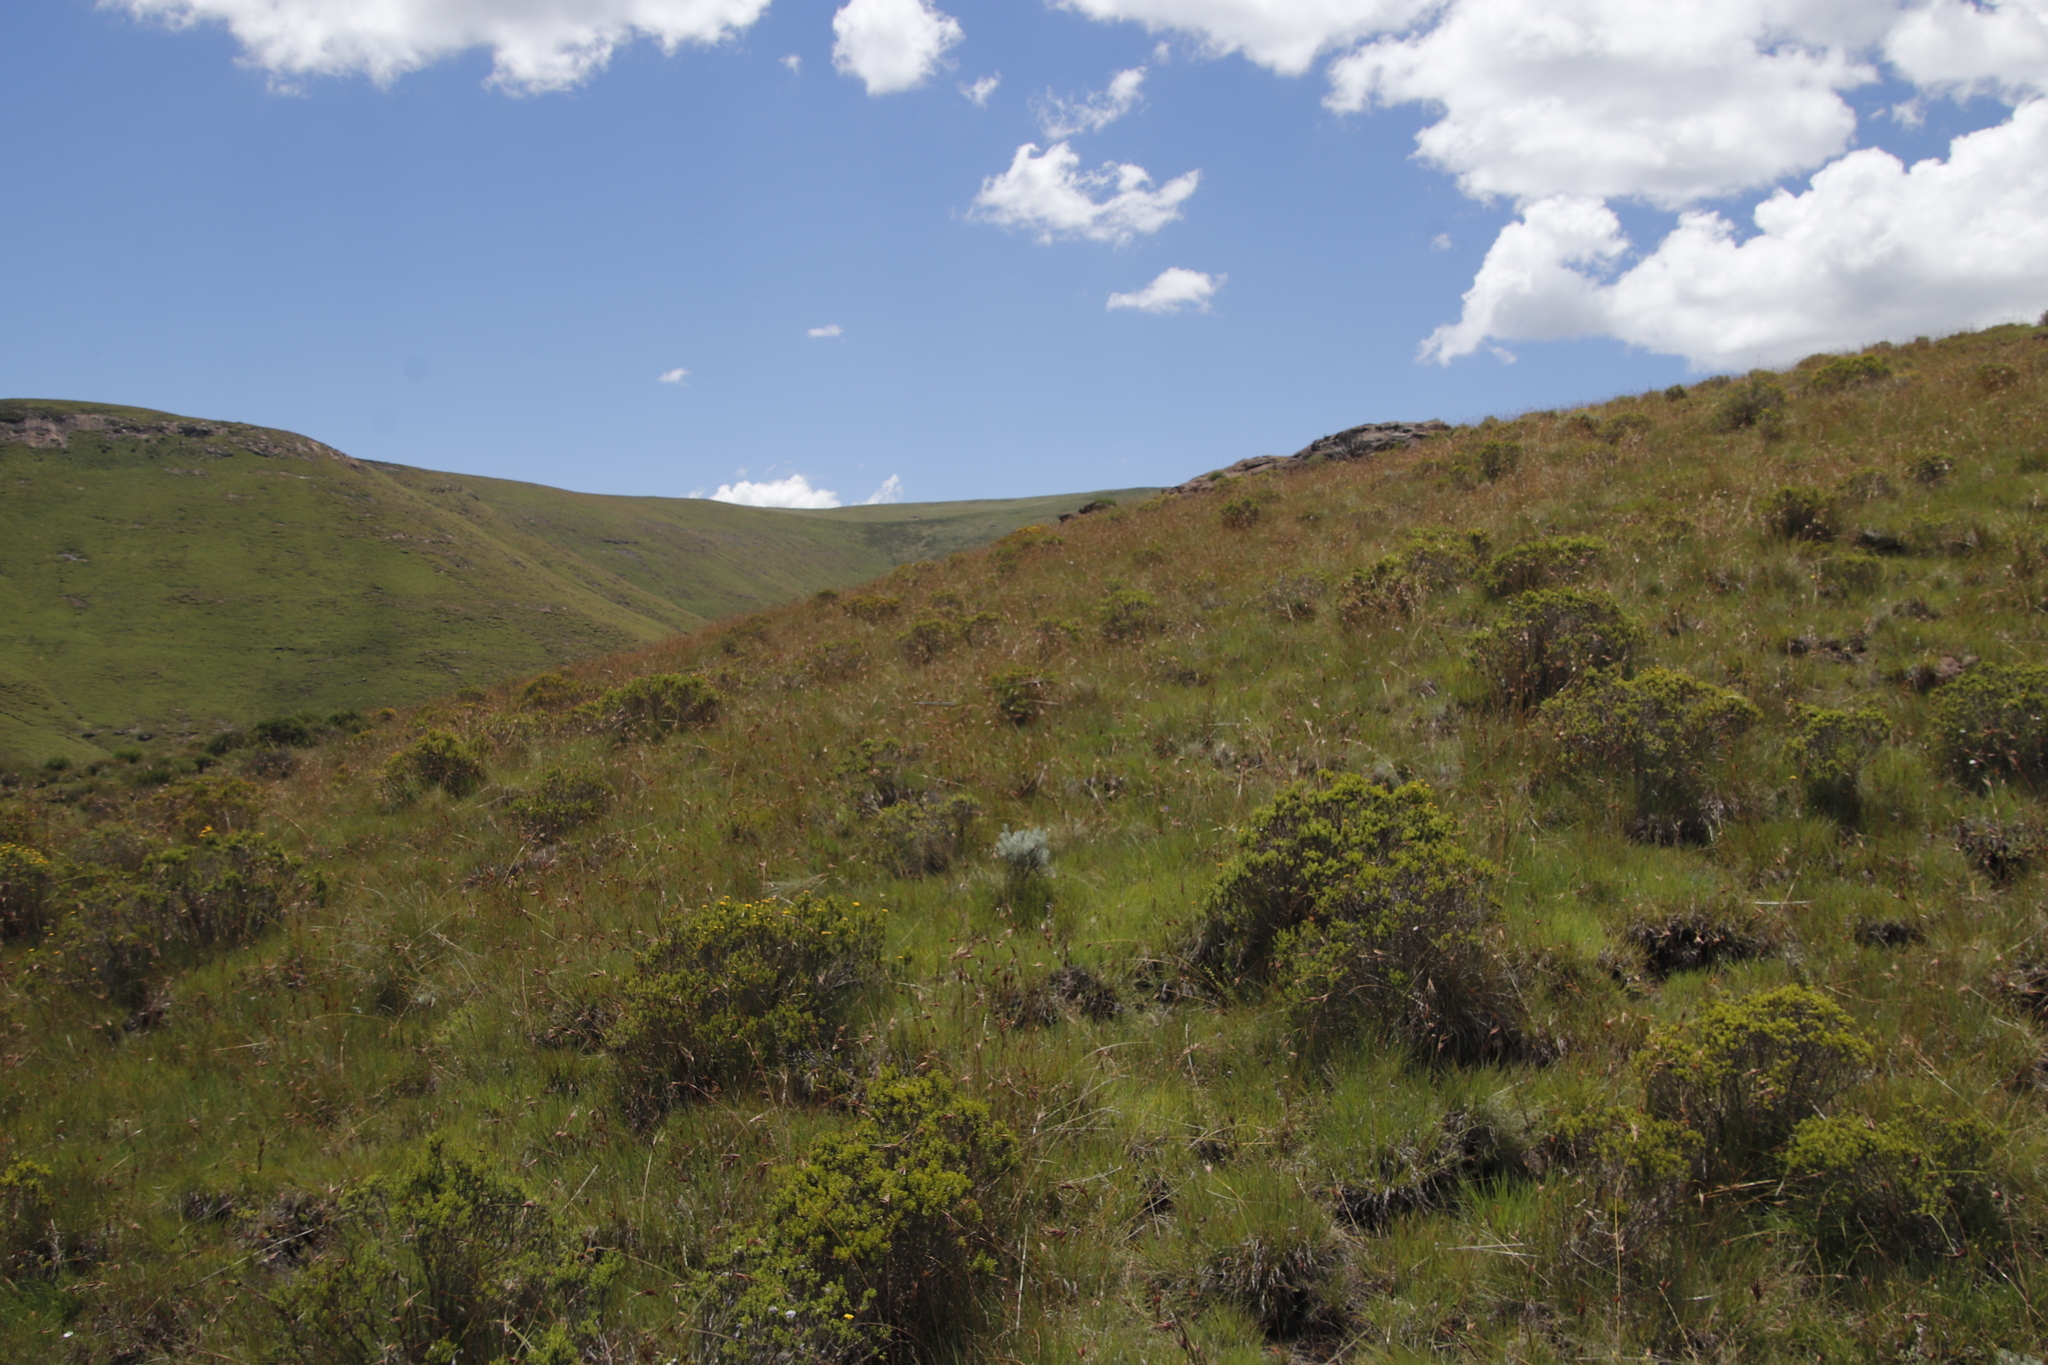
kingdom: Plantae
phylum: Tracheophyta
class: Liliopsida
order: Poales
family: Poaceae
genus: Themeda
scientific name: Themeda triandra
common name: Kangaroo grass
